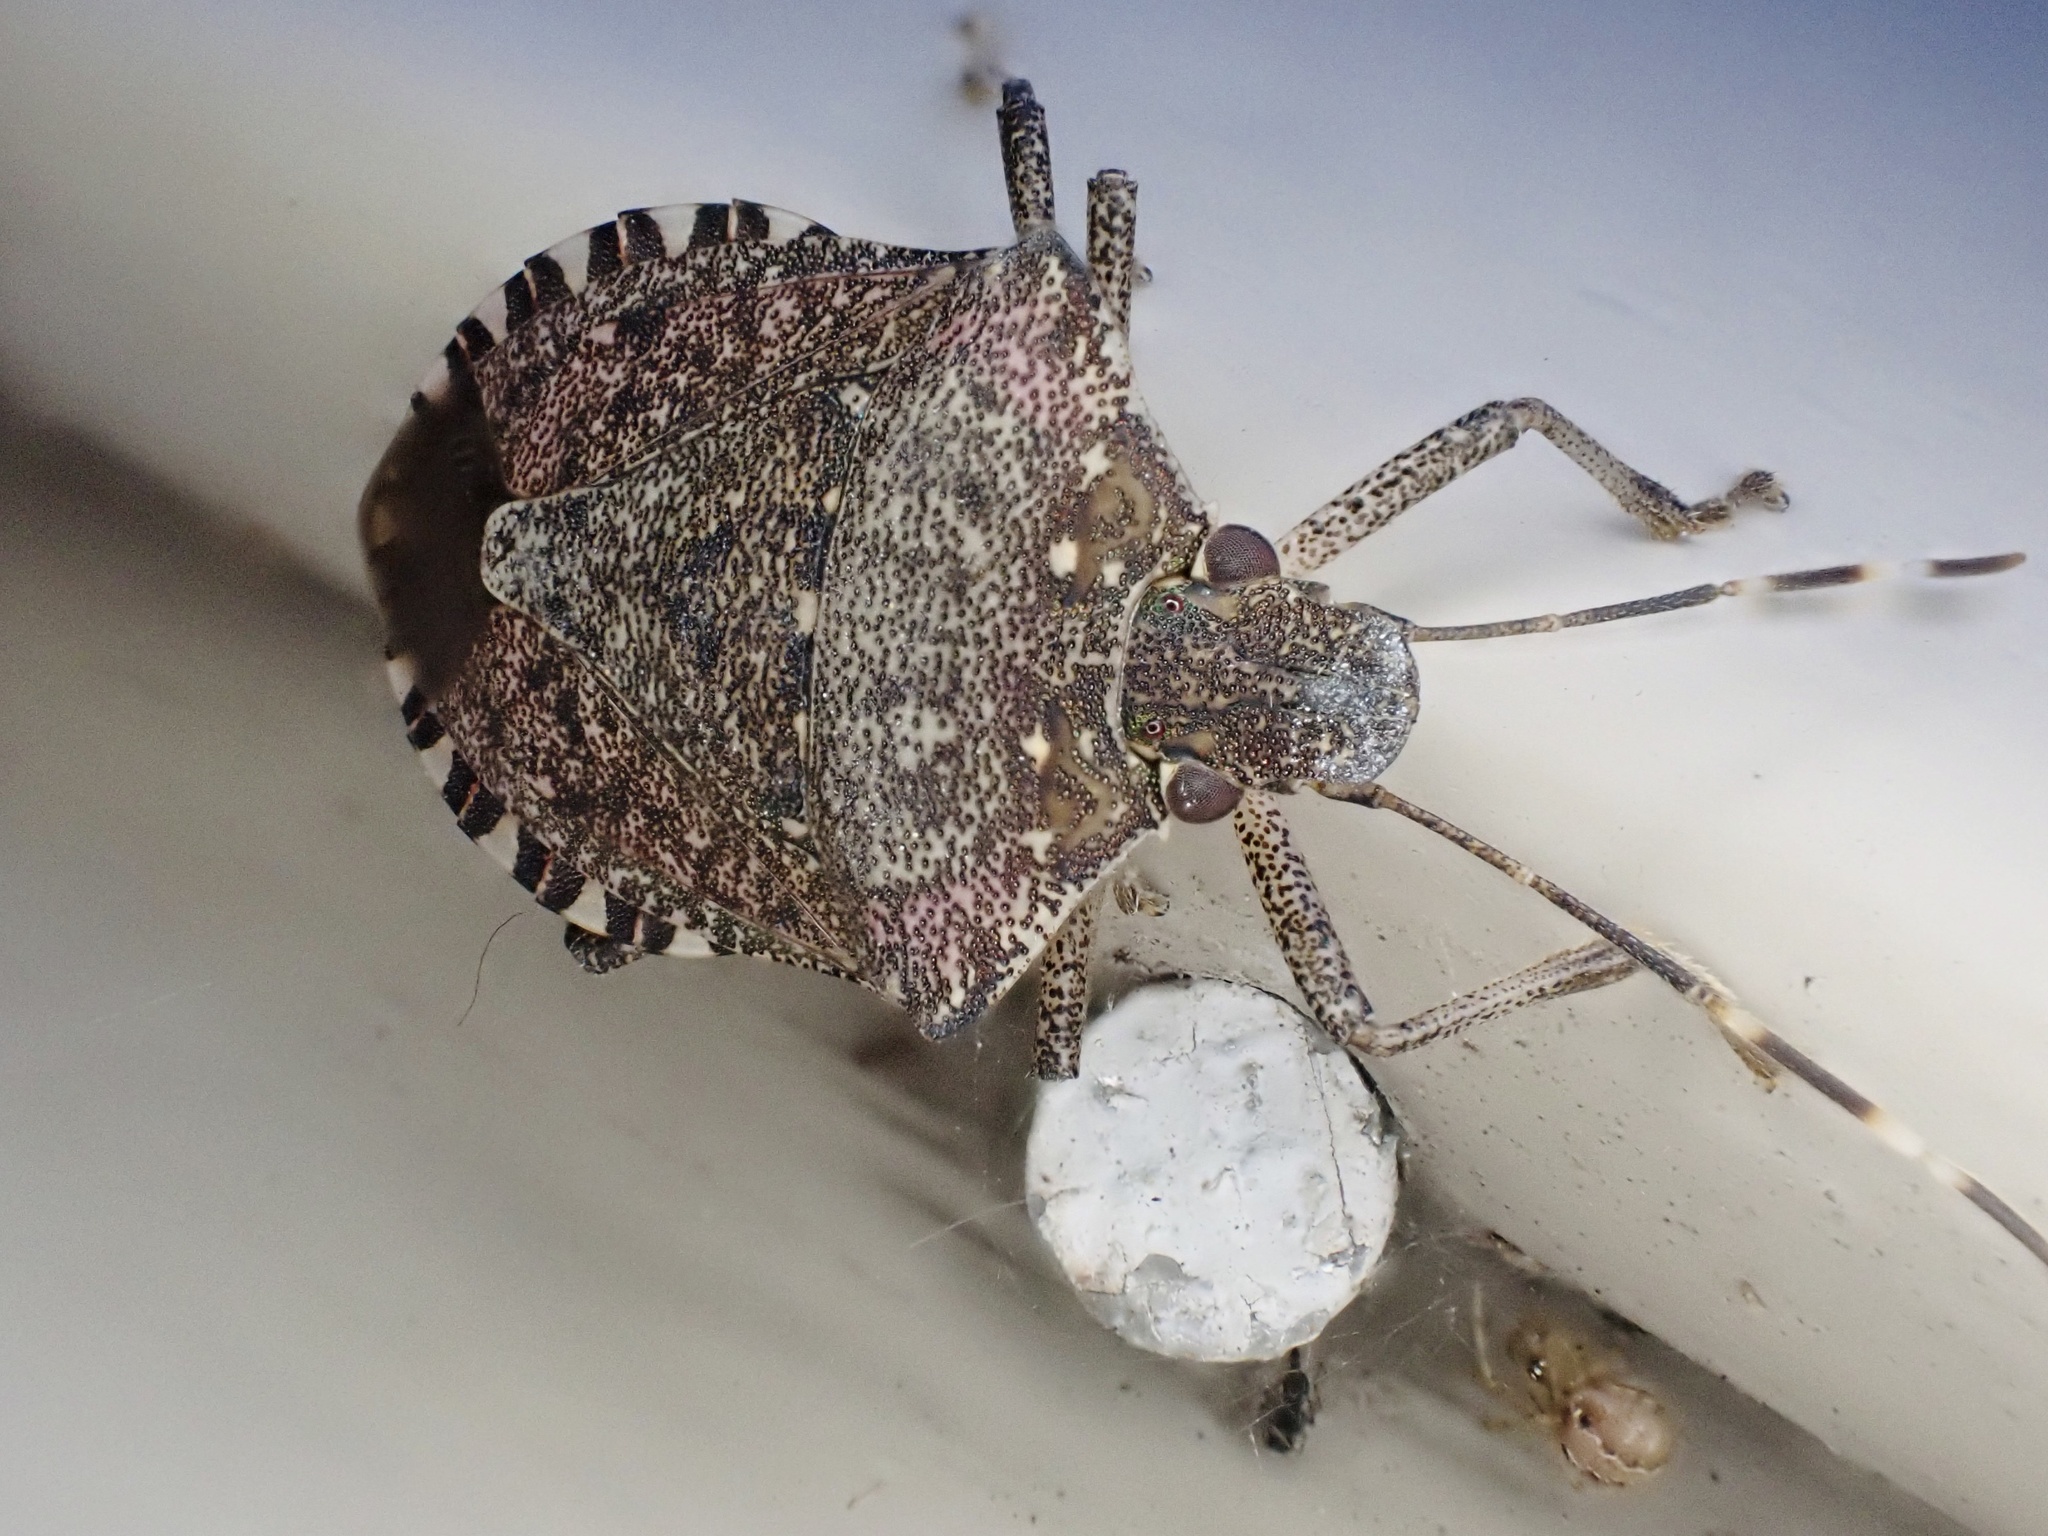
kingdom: Animalia
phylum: Arthropoda
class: Insecta
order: Hemiptera
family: Pentatomidae
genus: Halyomorpha
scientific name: Halyomorpha halys
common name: Brown marmorated stink bug
